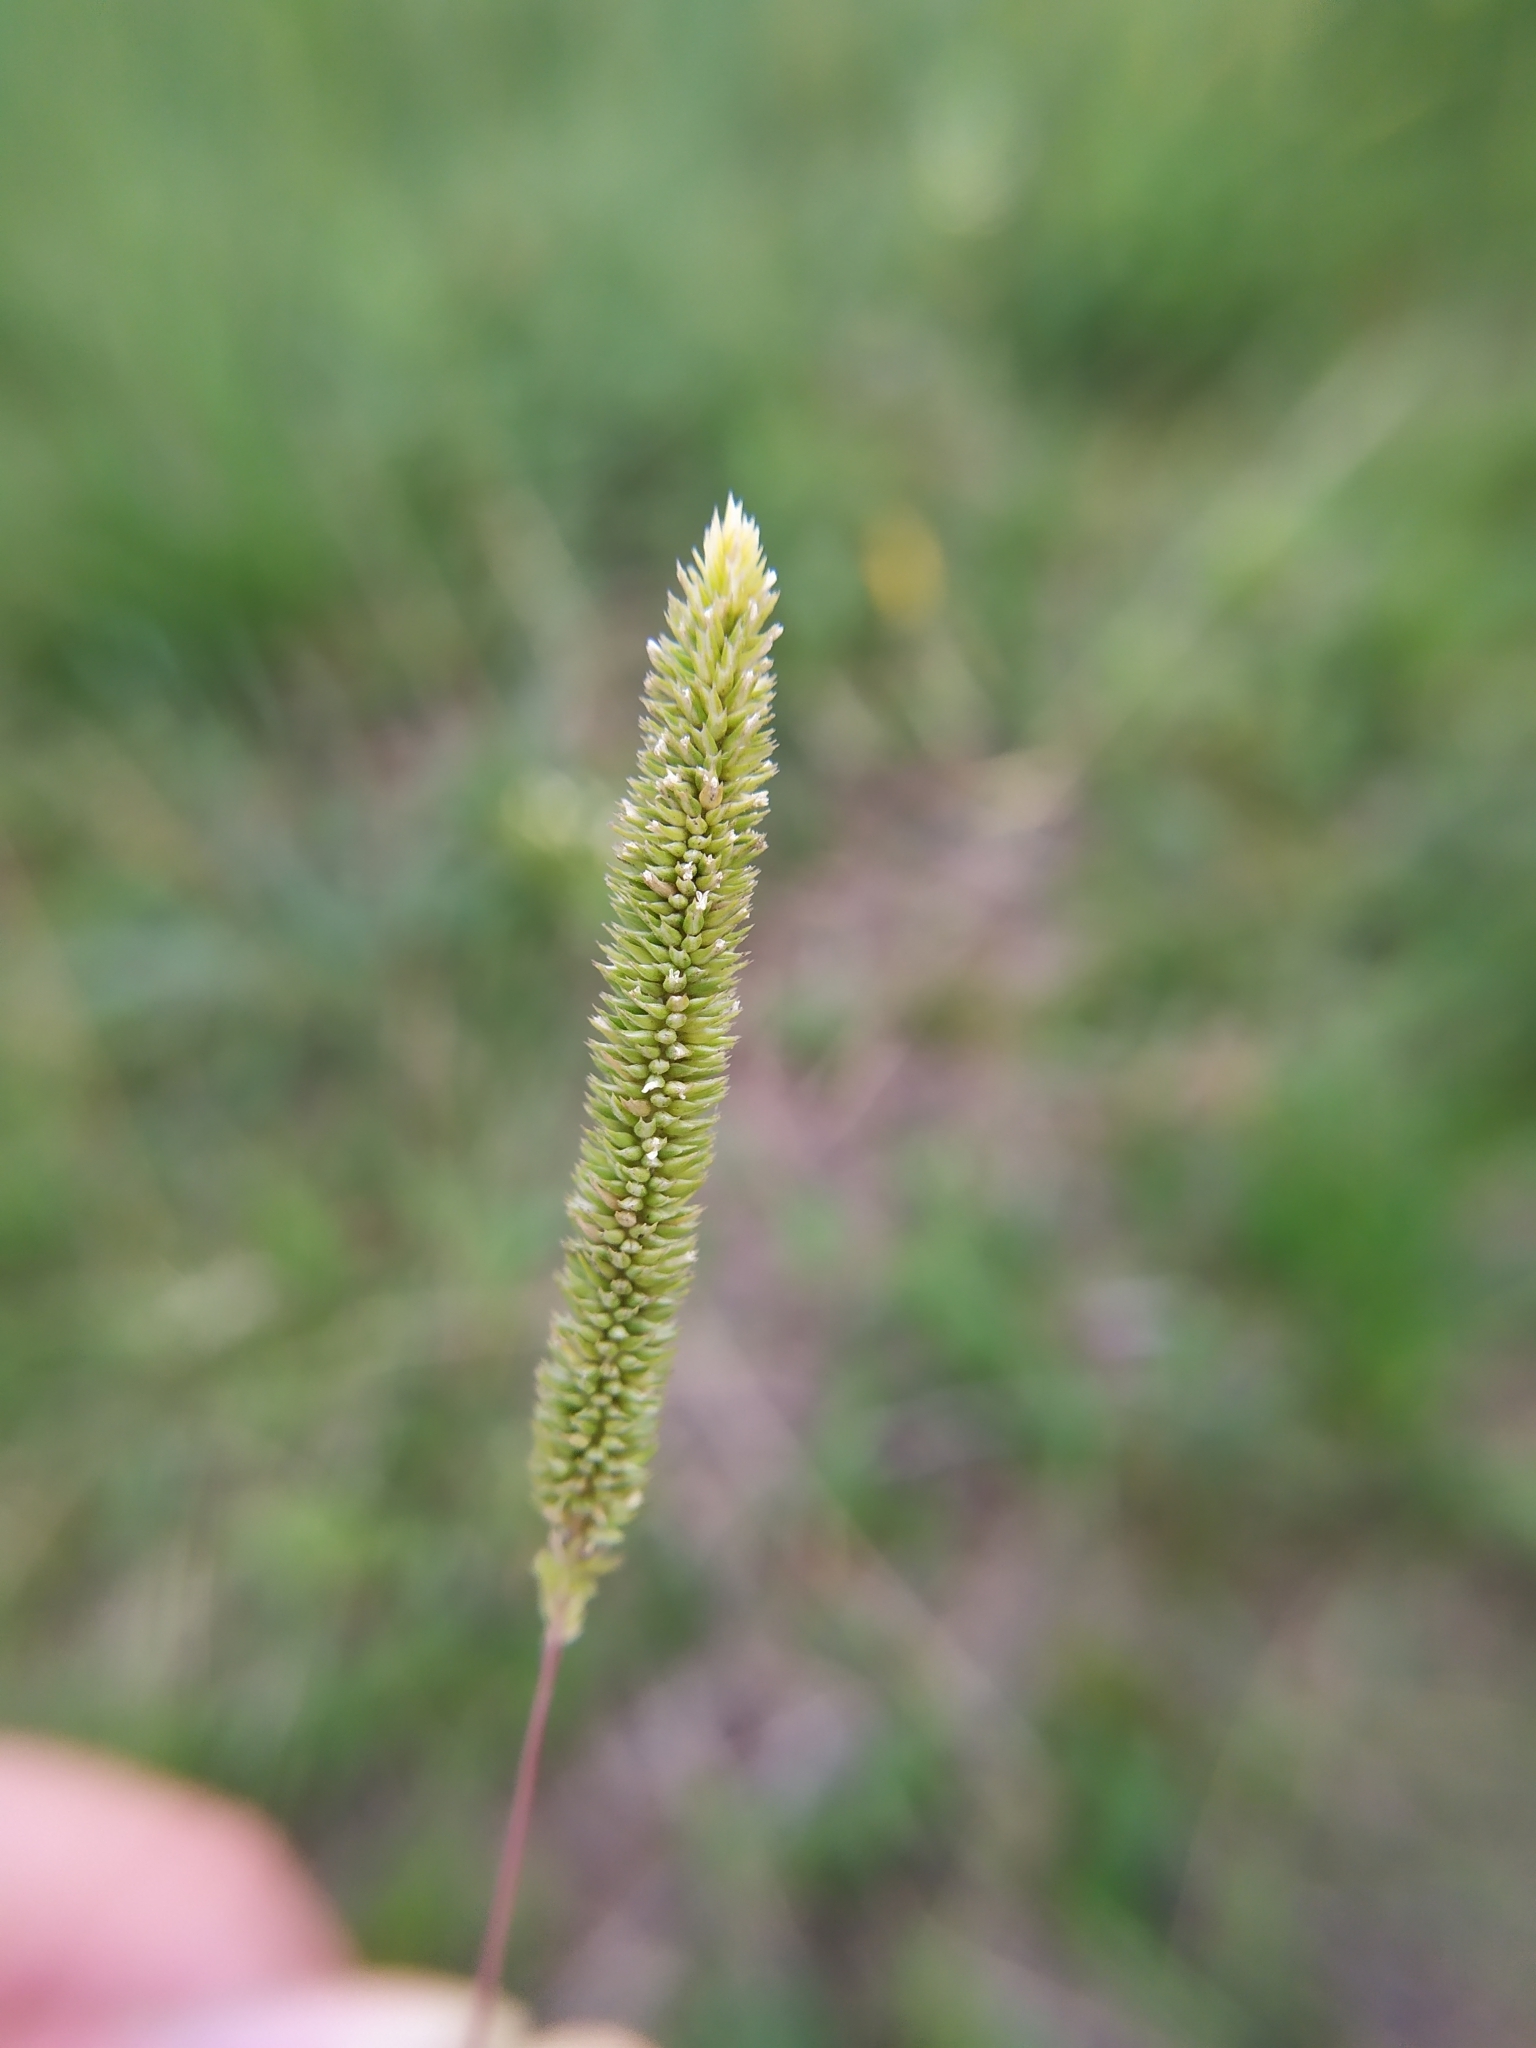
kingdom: Plantae
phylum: Tracheophyta
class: Liliopsida
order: Poales
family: Poaceae
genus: Phleum
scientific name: Phleum phleoides
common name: Purple-stem cat's-tail
